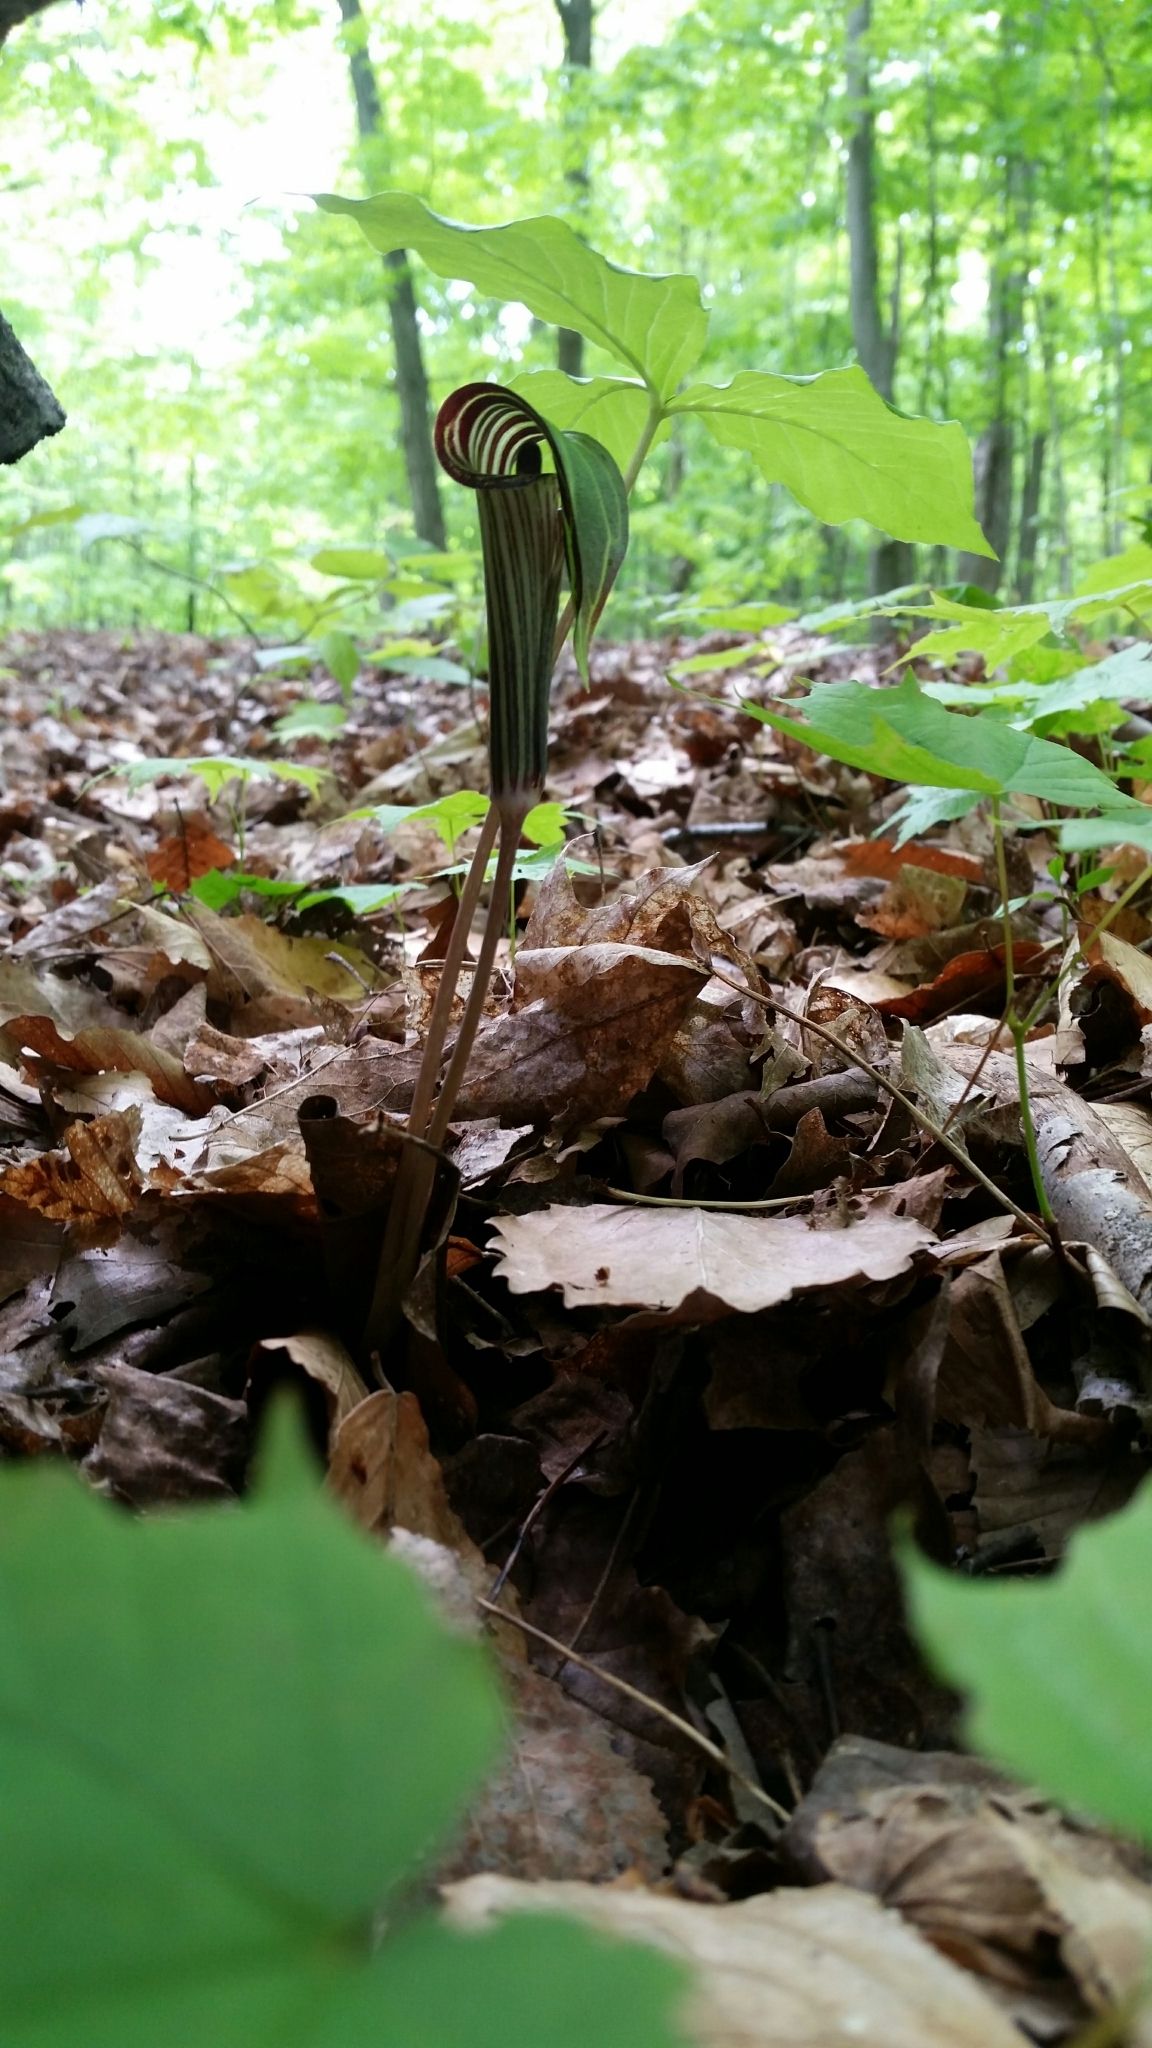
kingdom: Plantae
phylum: Tracheophyta
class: Liliopsida
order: Alismatales
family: Araceae
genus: Arisaema
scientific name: Arisaema triphyllum
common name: Jack-in-the-pulpit
